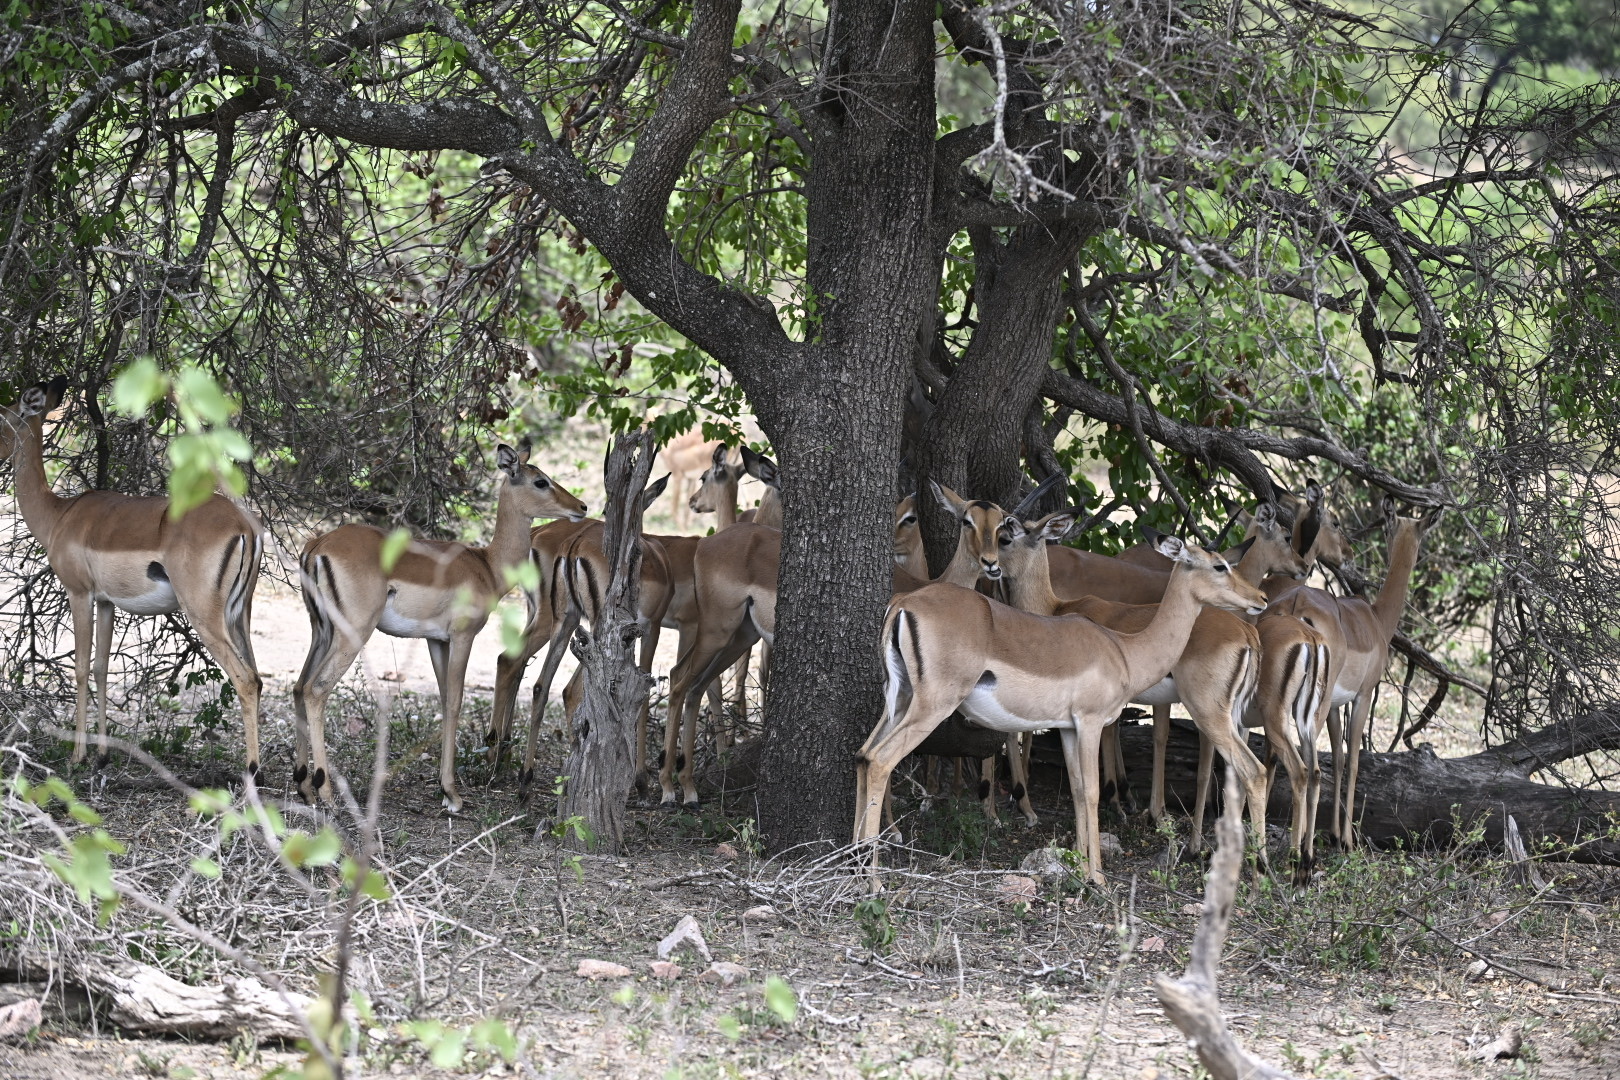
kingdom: Animalia
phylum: Chordata
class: Mammalia
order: Artiodactyla
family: Bovidae
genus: Aepyceros
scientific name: Aepyceros melampus
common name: Impala
